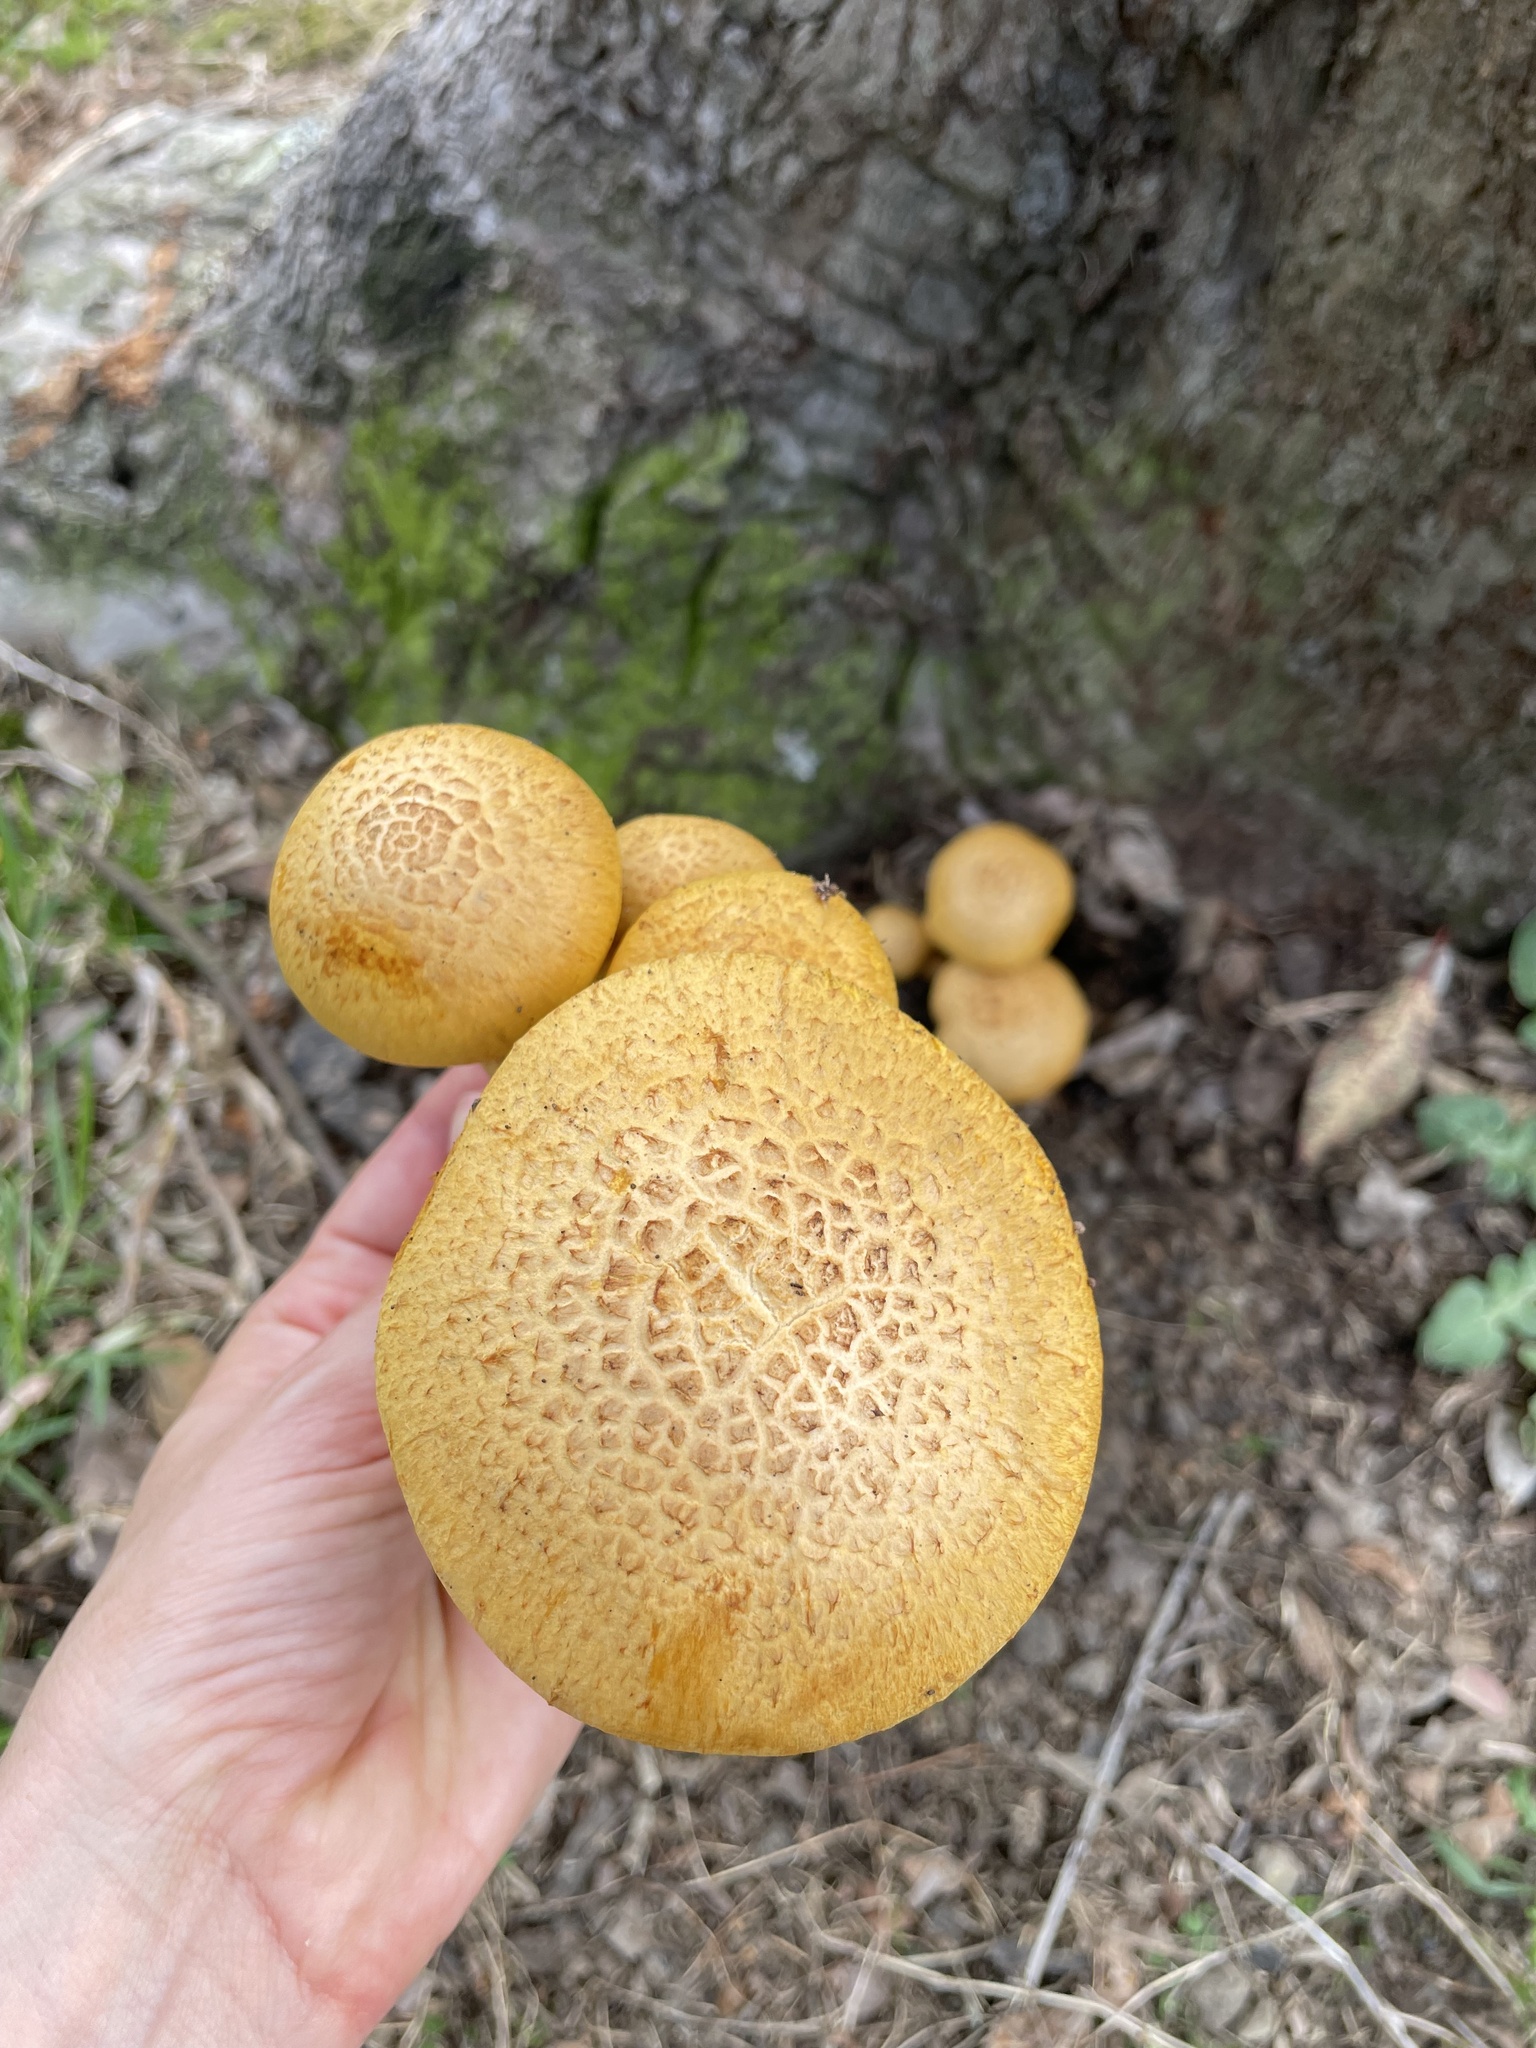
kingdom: Fungi
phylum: Basidiomycota
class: Agaricomycetes
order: Agaricales
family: Hymenogastraceae
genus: Gymnopilus
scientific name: Gymnopilus junonius
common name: Spectacular rustgill
